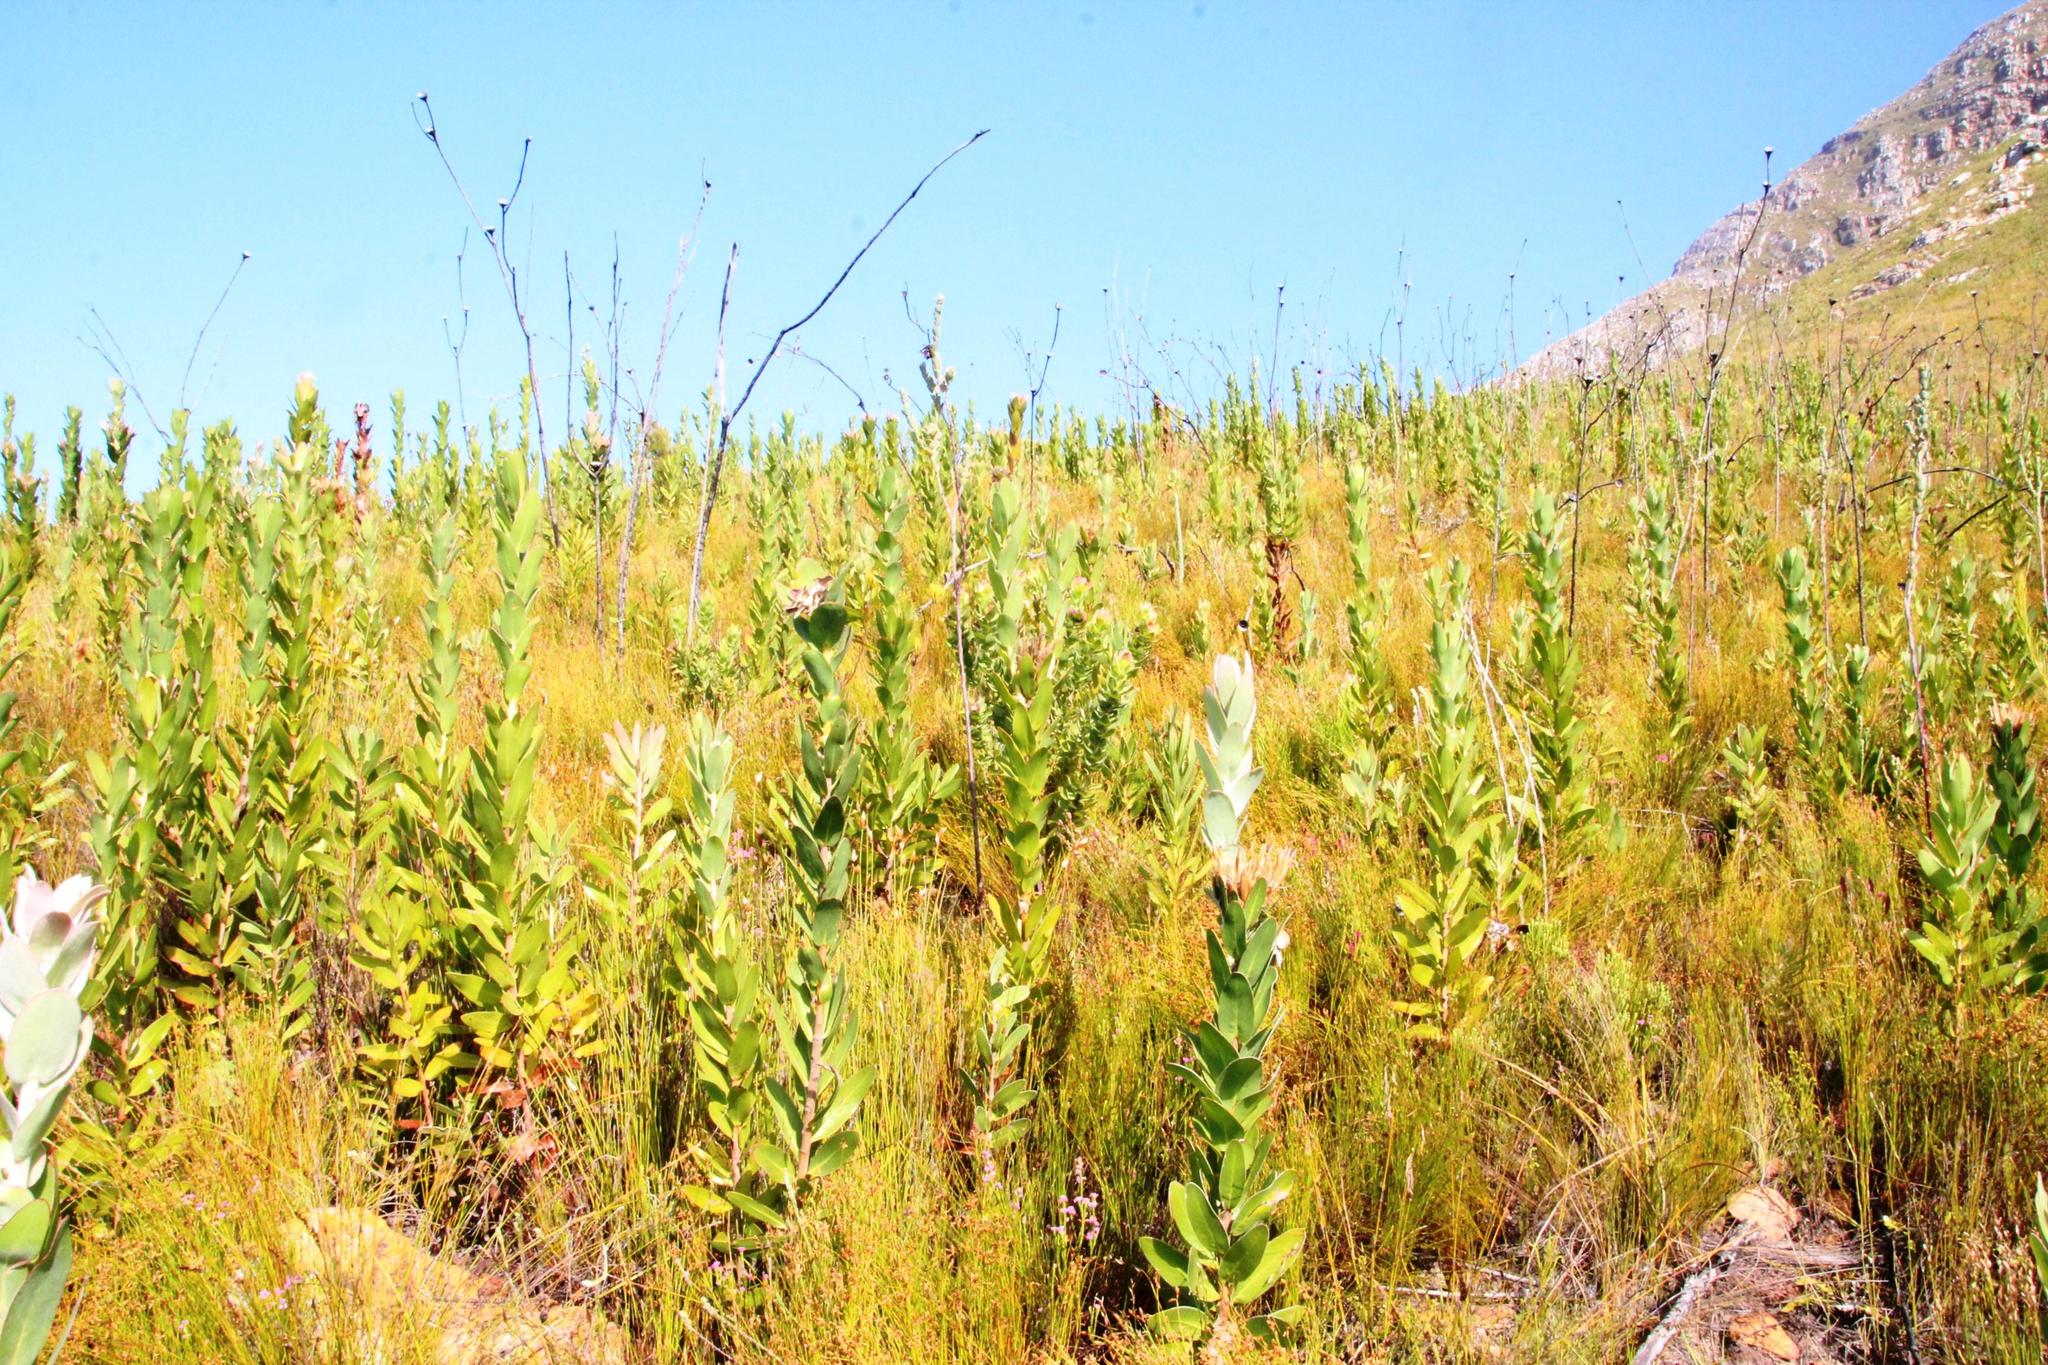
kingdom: Plantae
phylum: Tracheophyta
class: Magnoliopsida
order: Proteales
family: Proteaceae
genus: Protea
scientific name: Protea compacta
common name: Bot river protea
